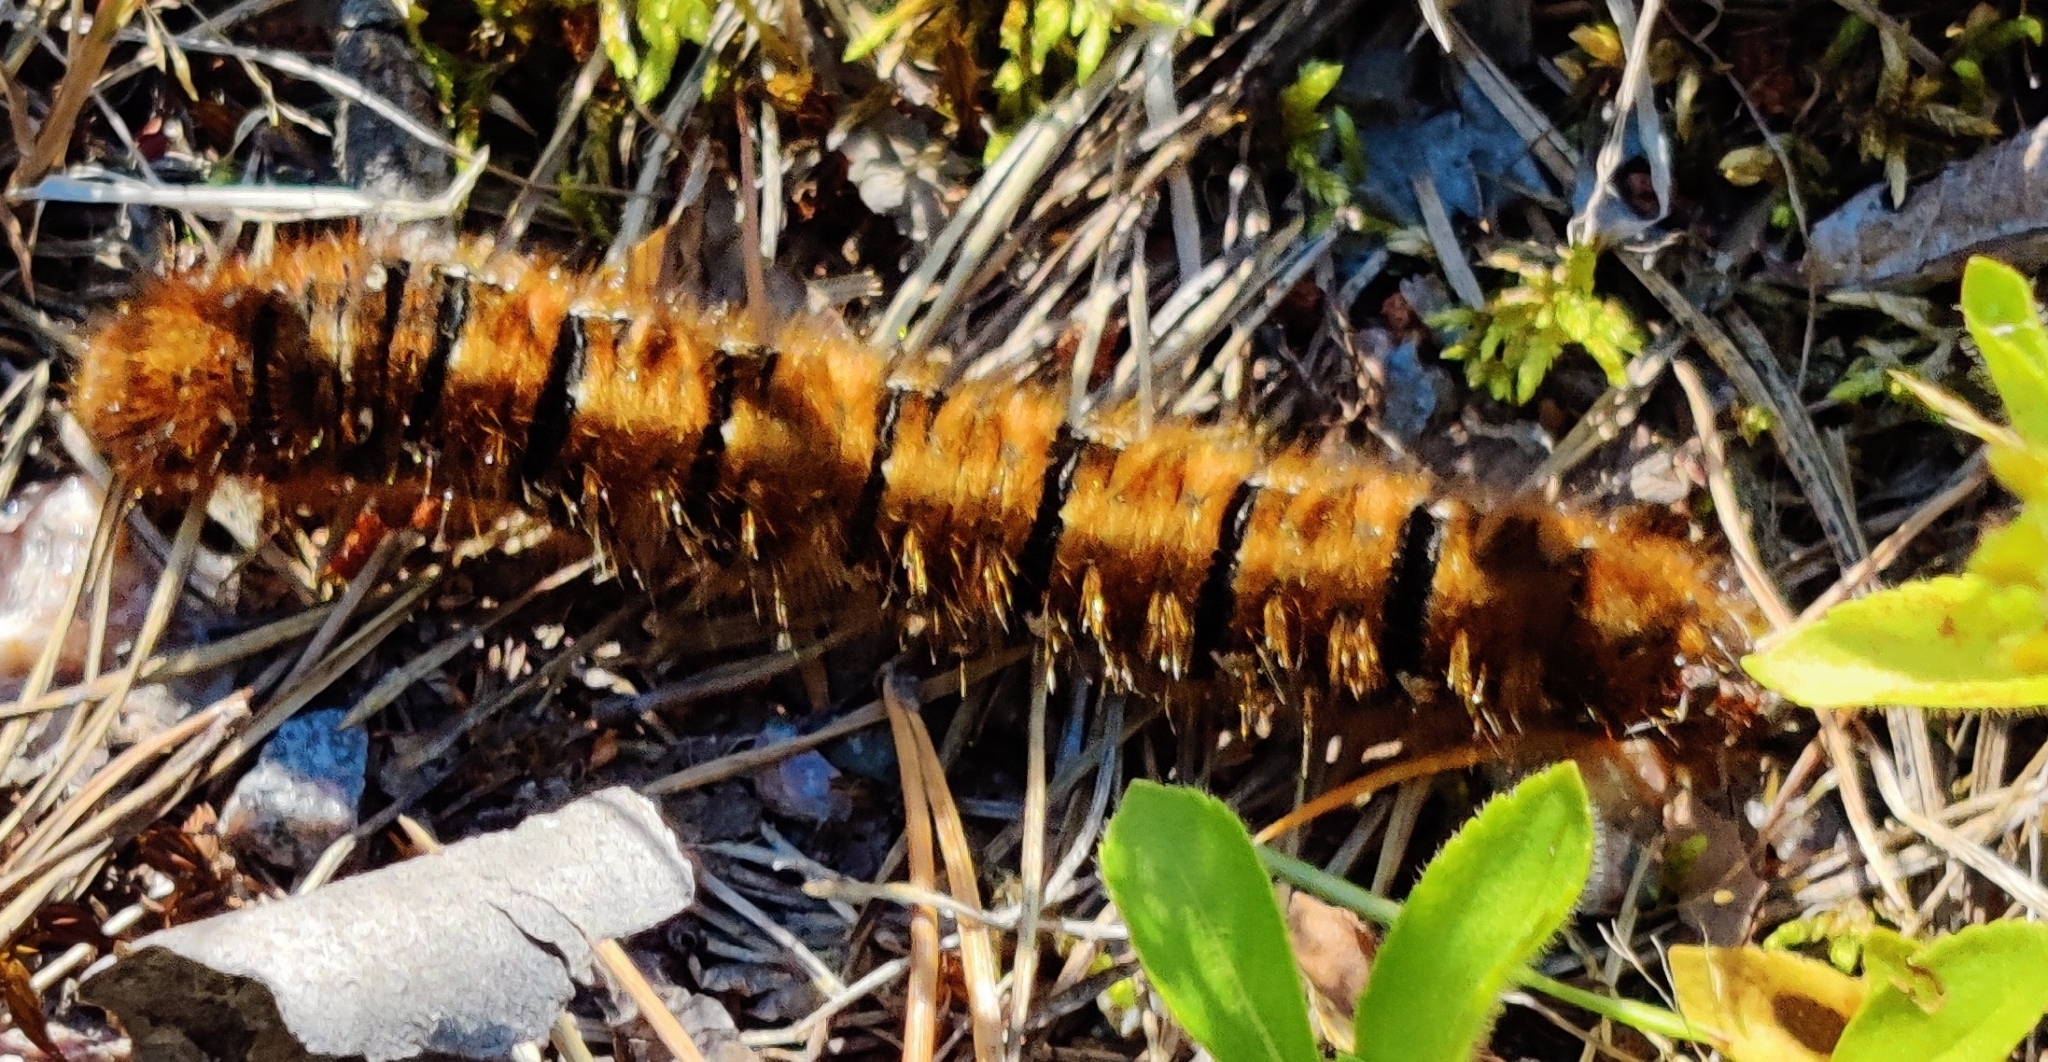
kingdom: Animalia
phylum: Arthropoda
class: Insecta
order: Lepidoptera
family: Lasiocampidae
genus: Lasiocampa
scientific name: Lasiocampa quercus
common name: Oak eggar
